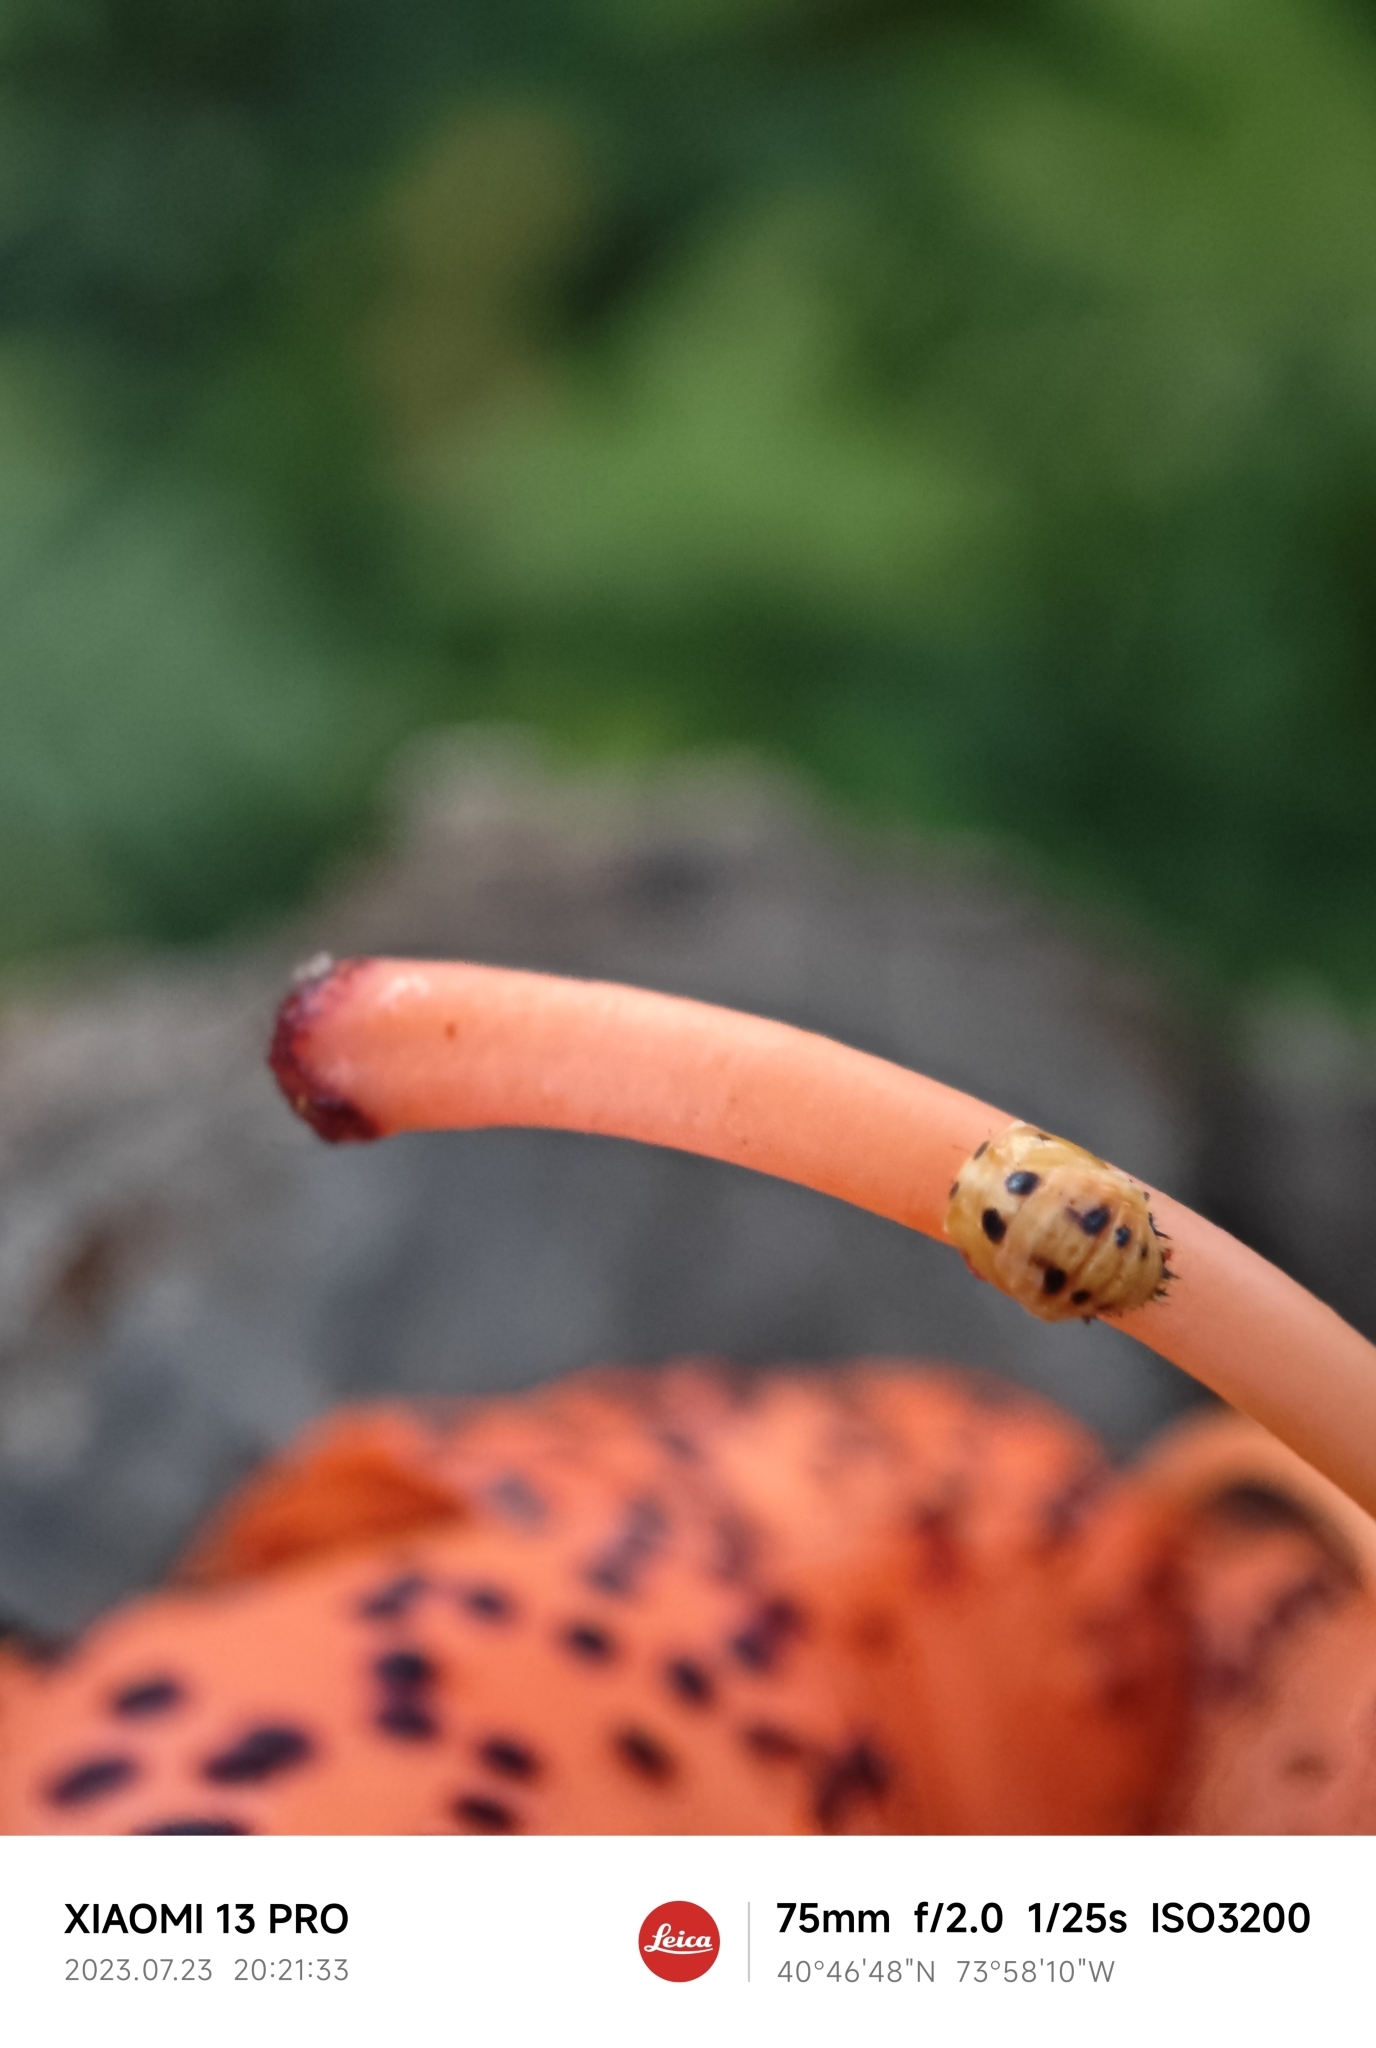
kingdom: Animalia
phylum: Arthropoda
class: Insecta
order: Coleoptera
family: Coccinellidae
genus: Harmonia
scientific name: Harmonia axyridis
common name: Harlequin ladybird
